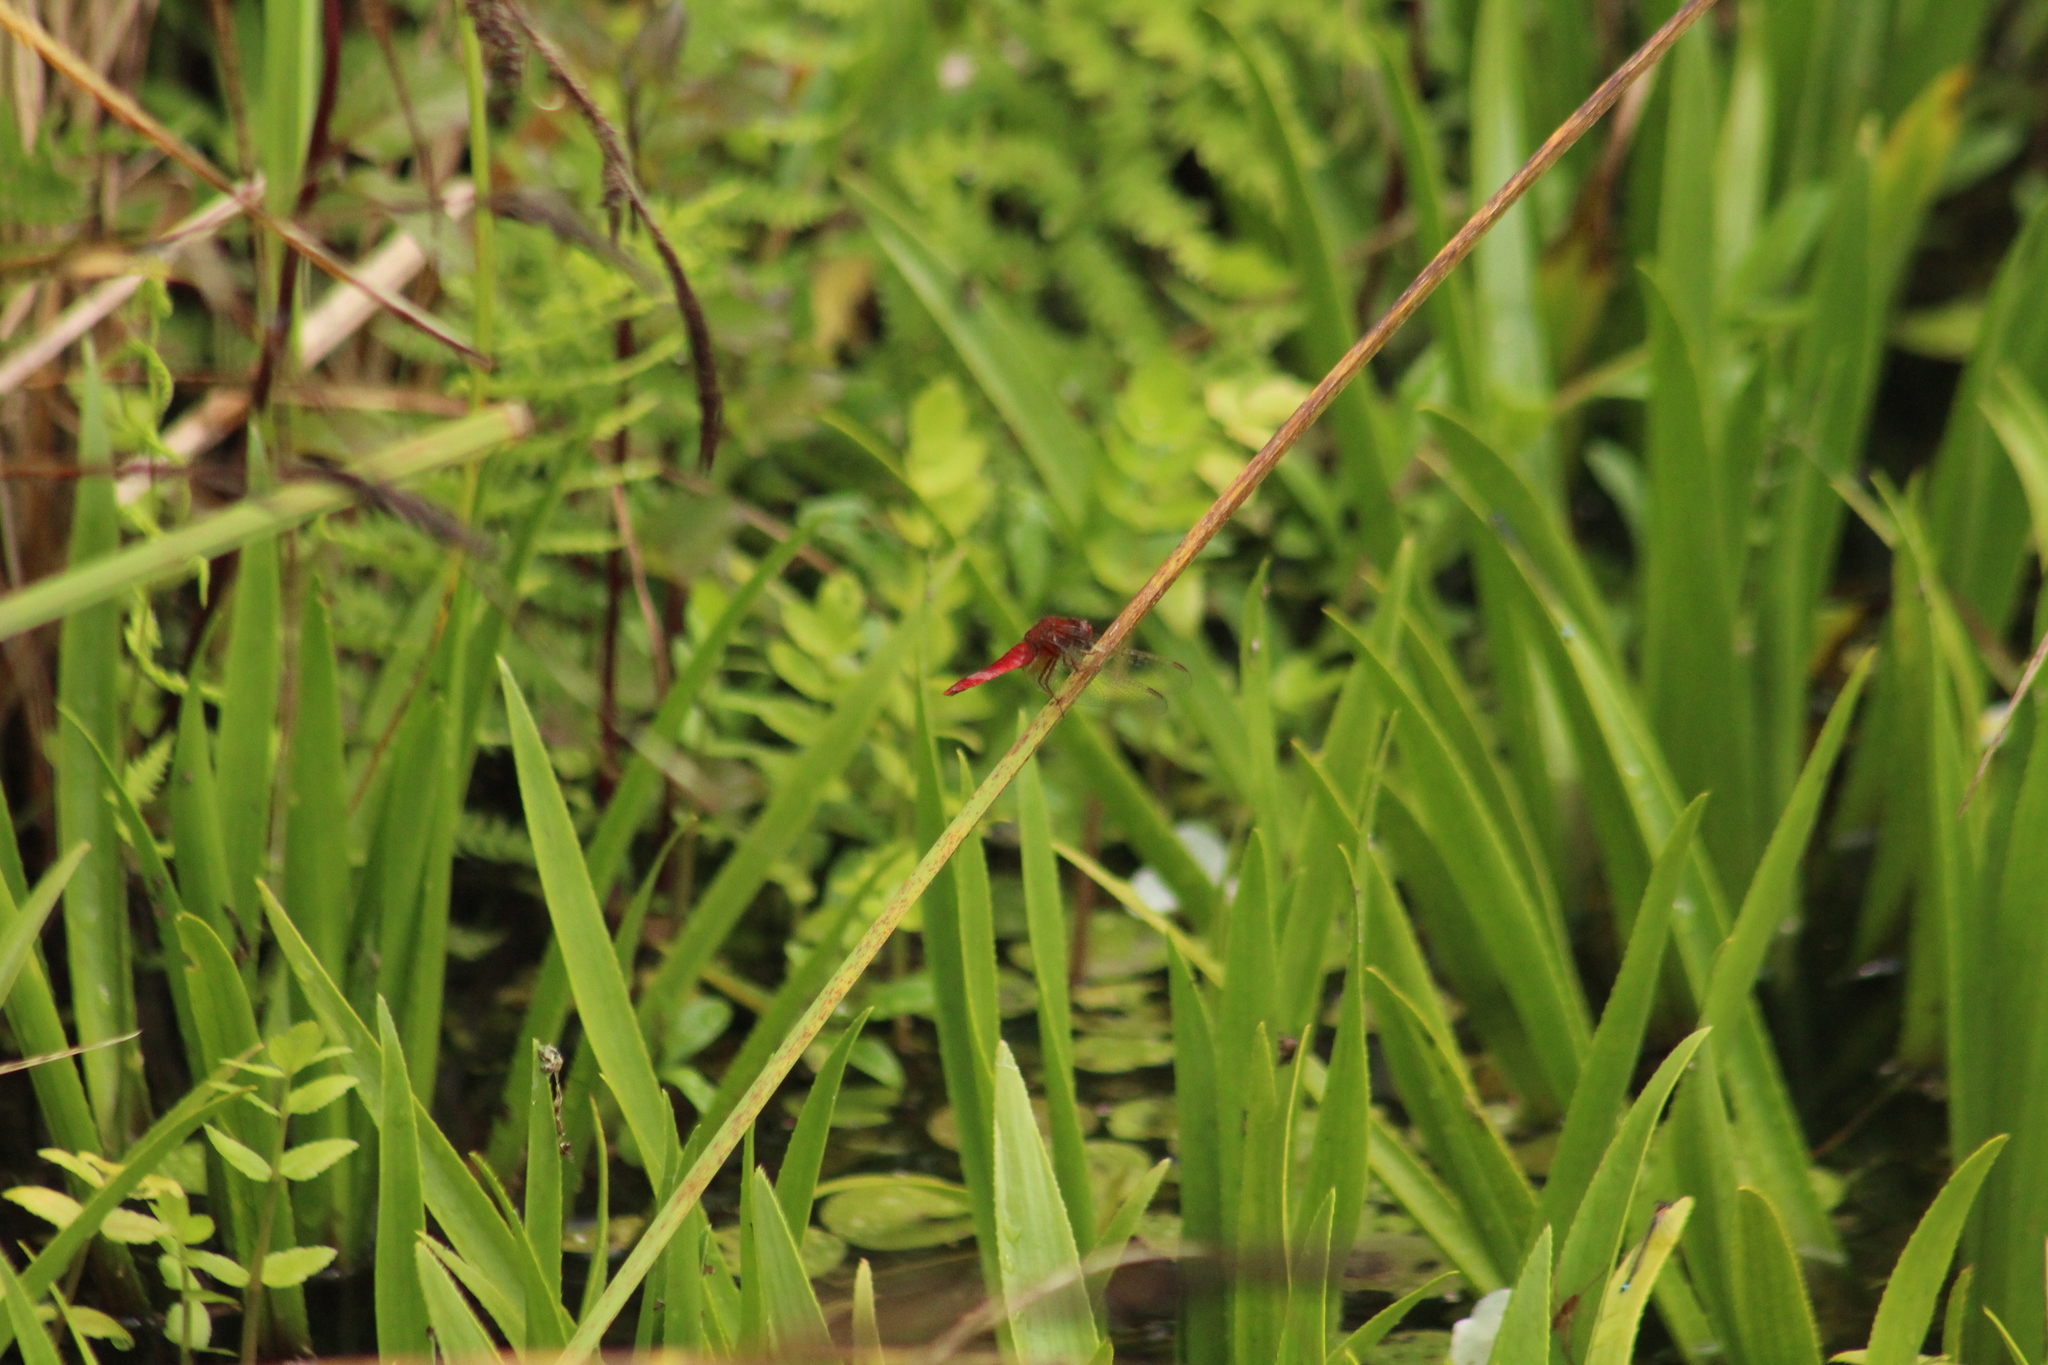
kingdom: Animalia
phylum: Arthropoda
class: Insecta
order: Odonata
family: Libellulidae
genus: Crocothemis
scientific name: Crocothemis erythraea
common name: Scarlet dragonfly
